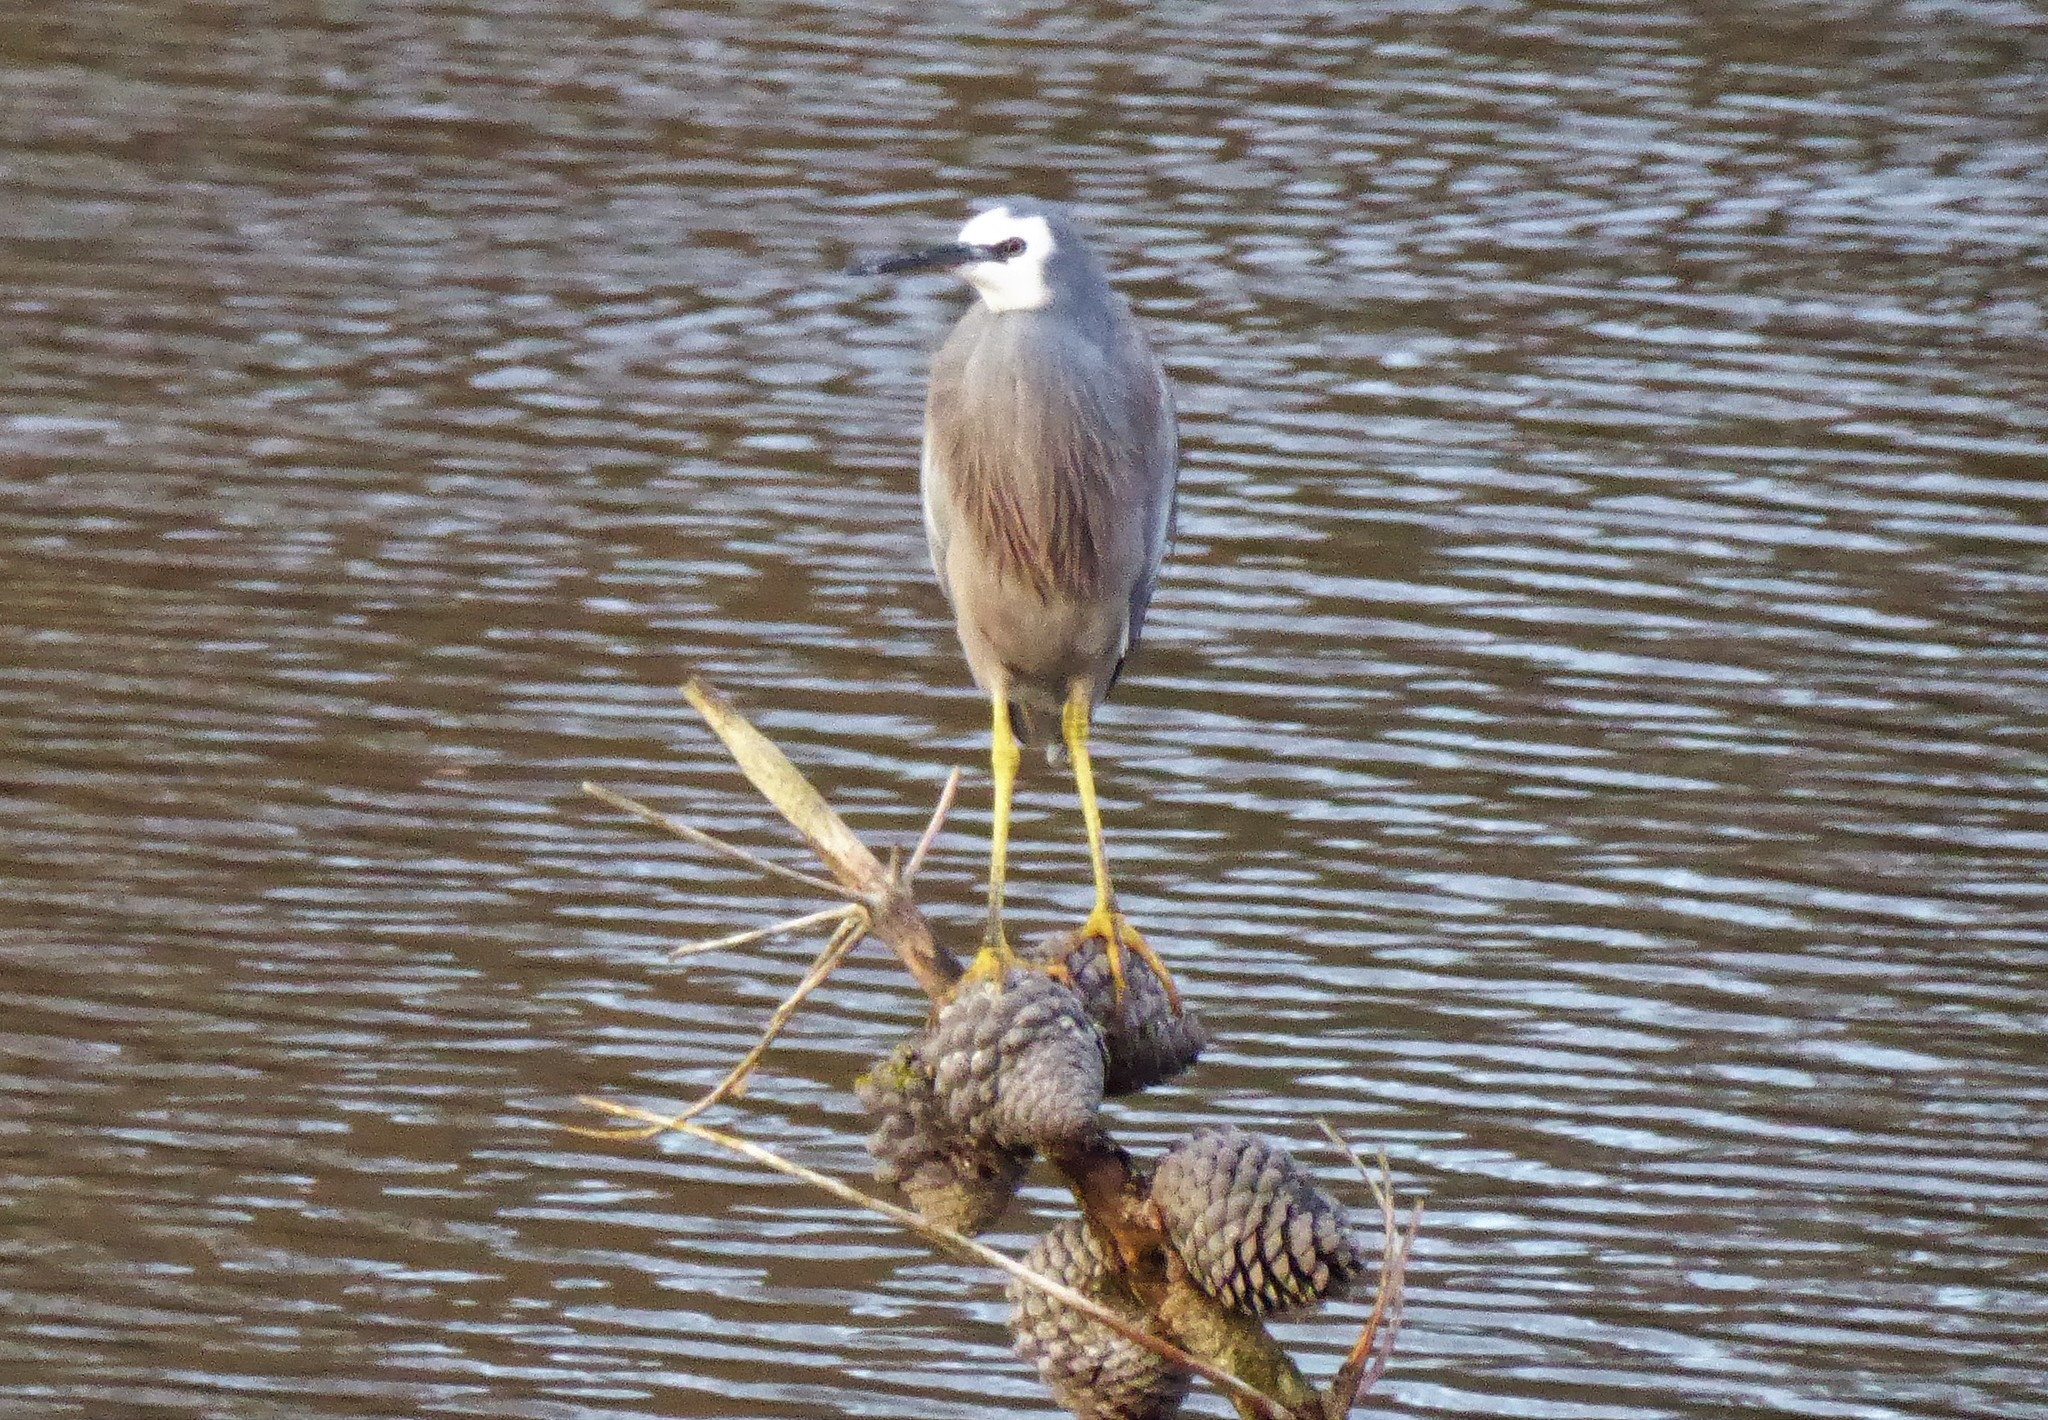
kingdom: Animalia
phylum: Chordata
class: Aves
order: Pelecaniformes
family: Ardeidae
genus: Egretta
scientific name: Egretta novaehollandiae
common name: White-faced heron
